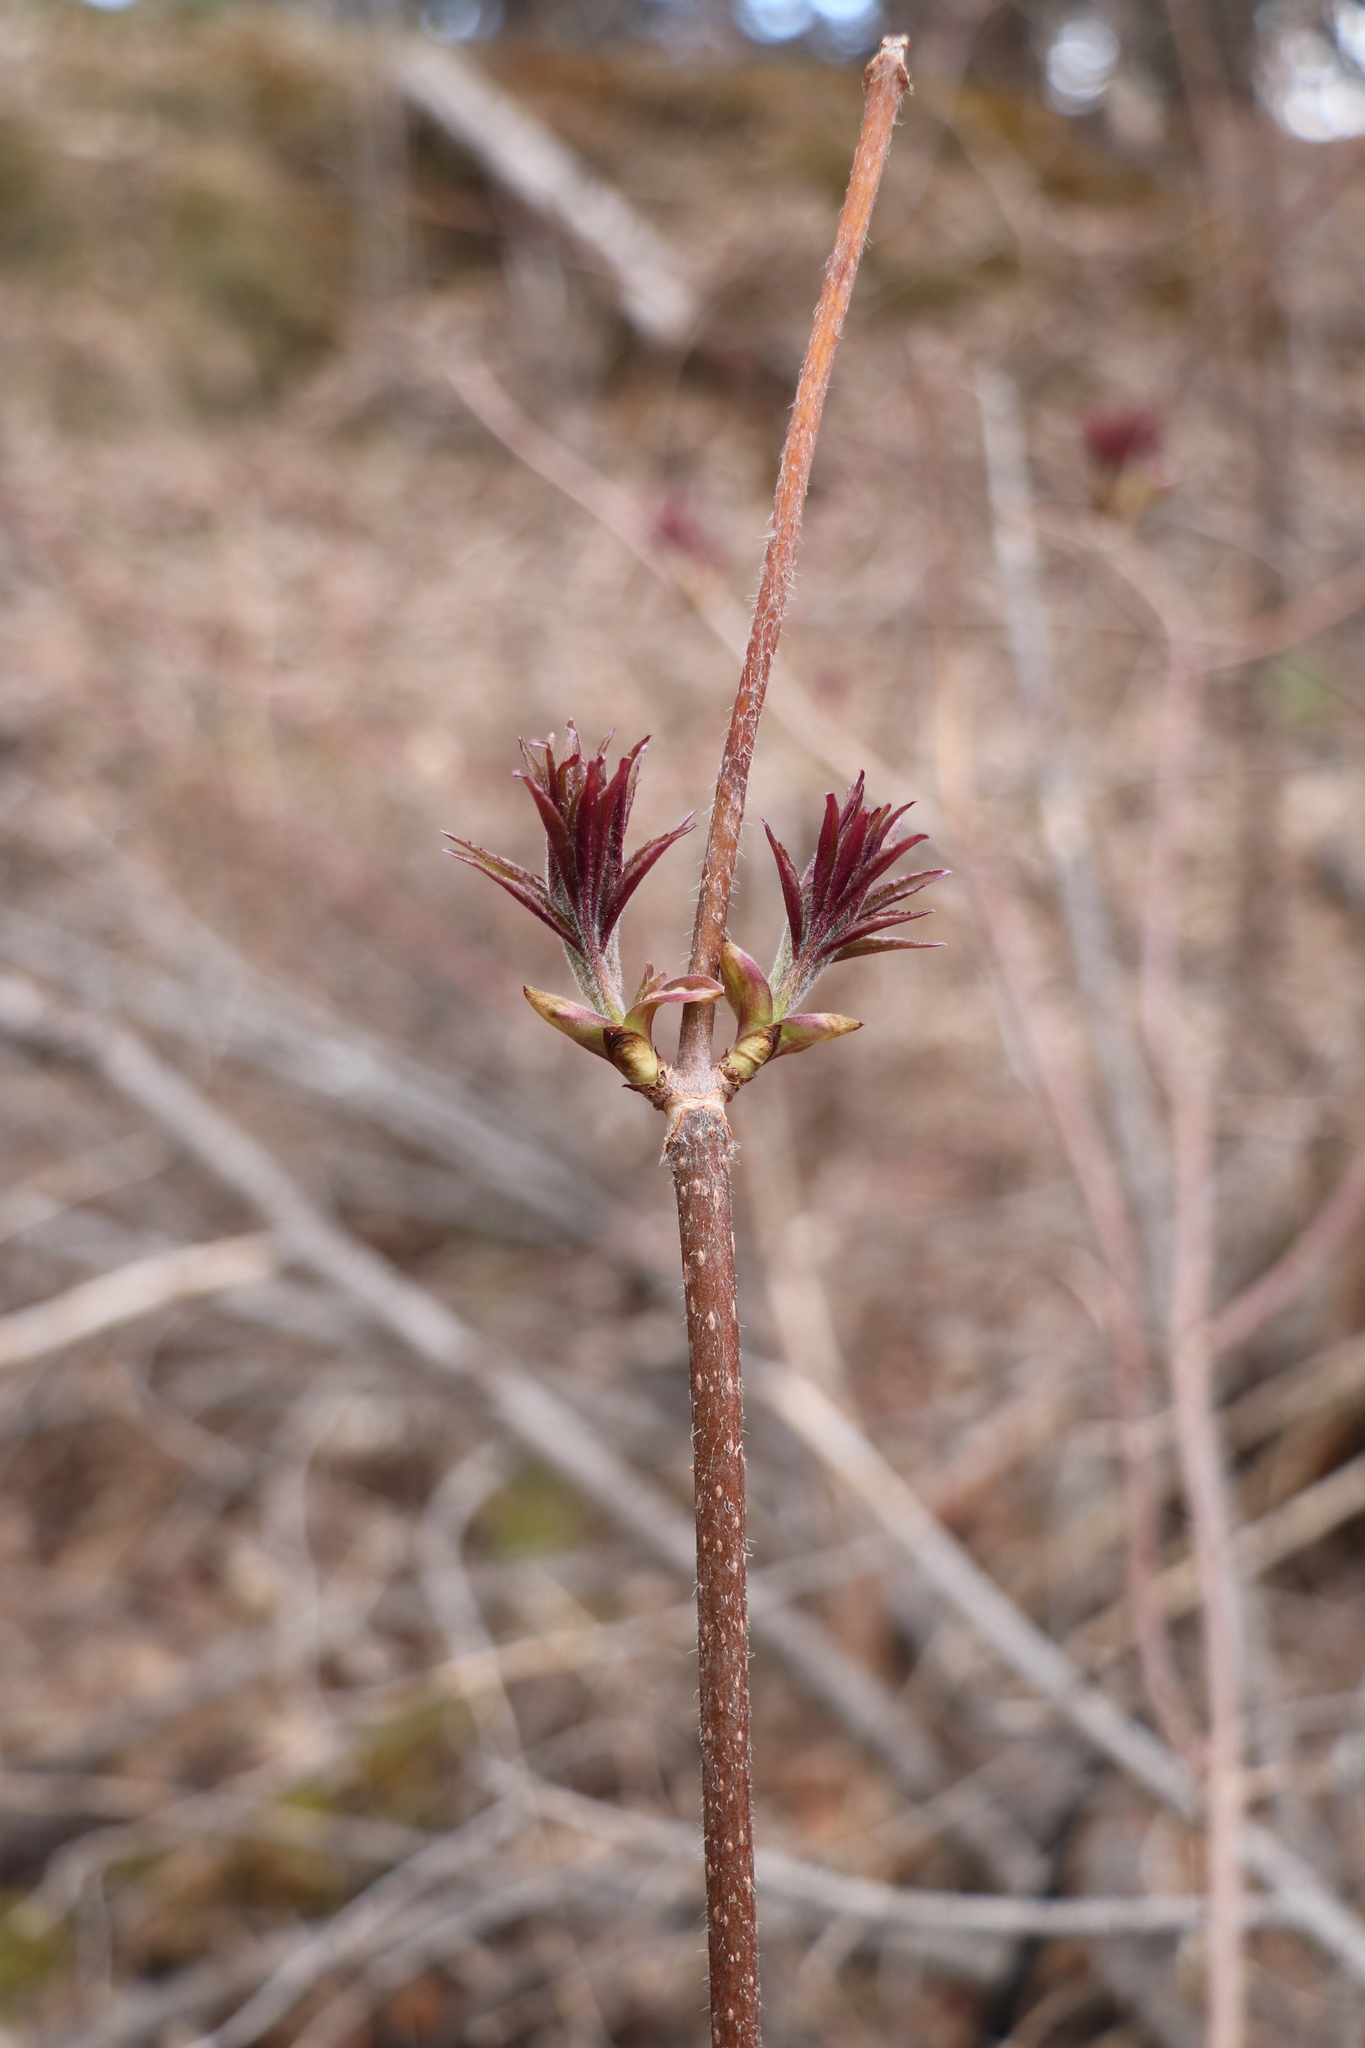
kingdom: Plantae
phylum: Tracheophyta
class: Magnoliopsida
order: Dipsacales
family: Viburnaceae
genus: Sambucus
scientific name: Sambucus sibirica
